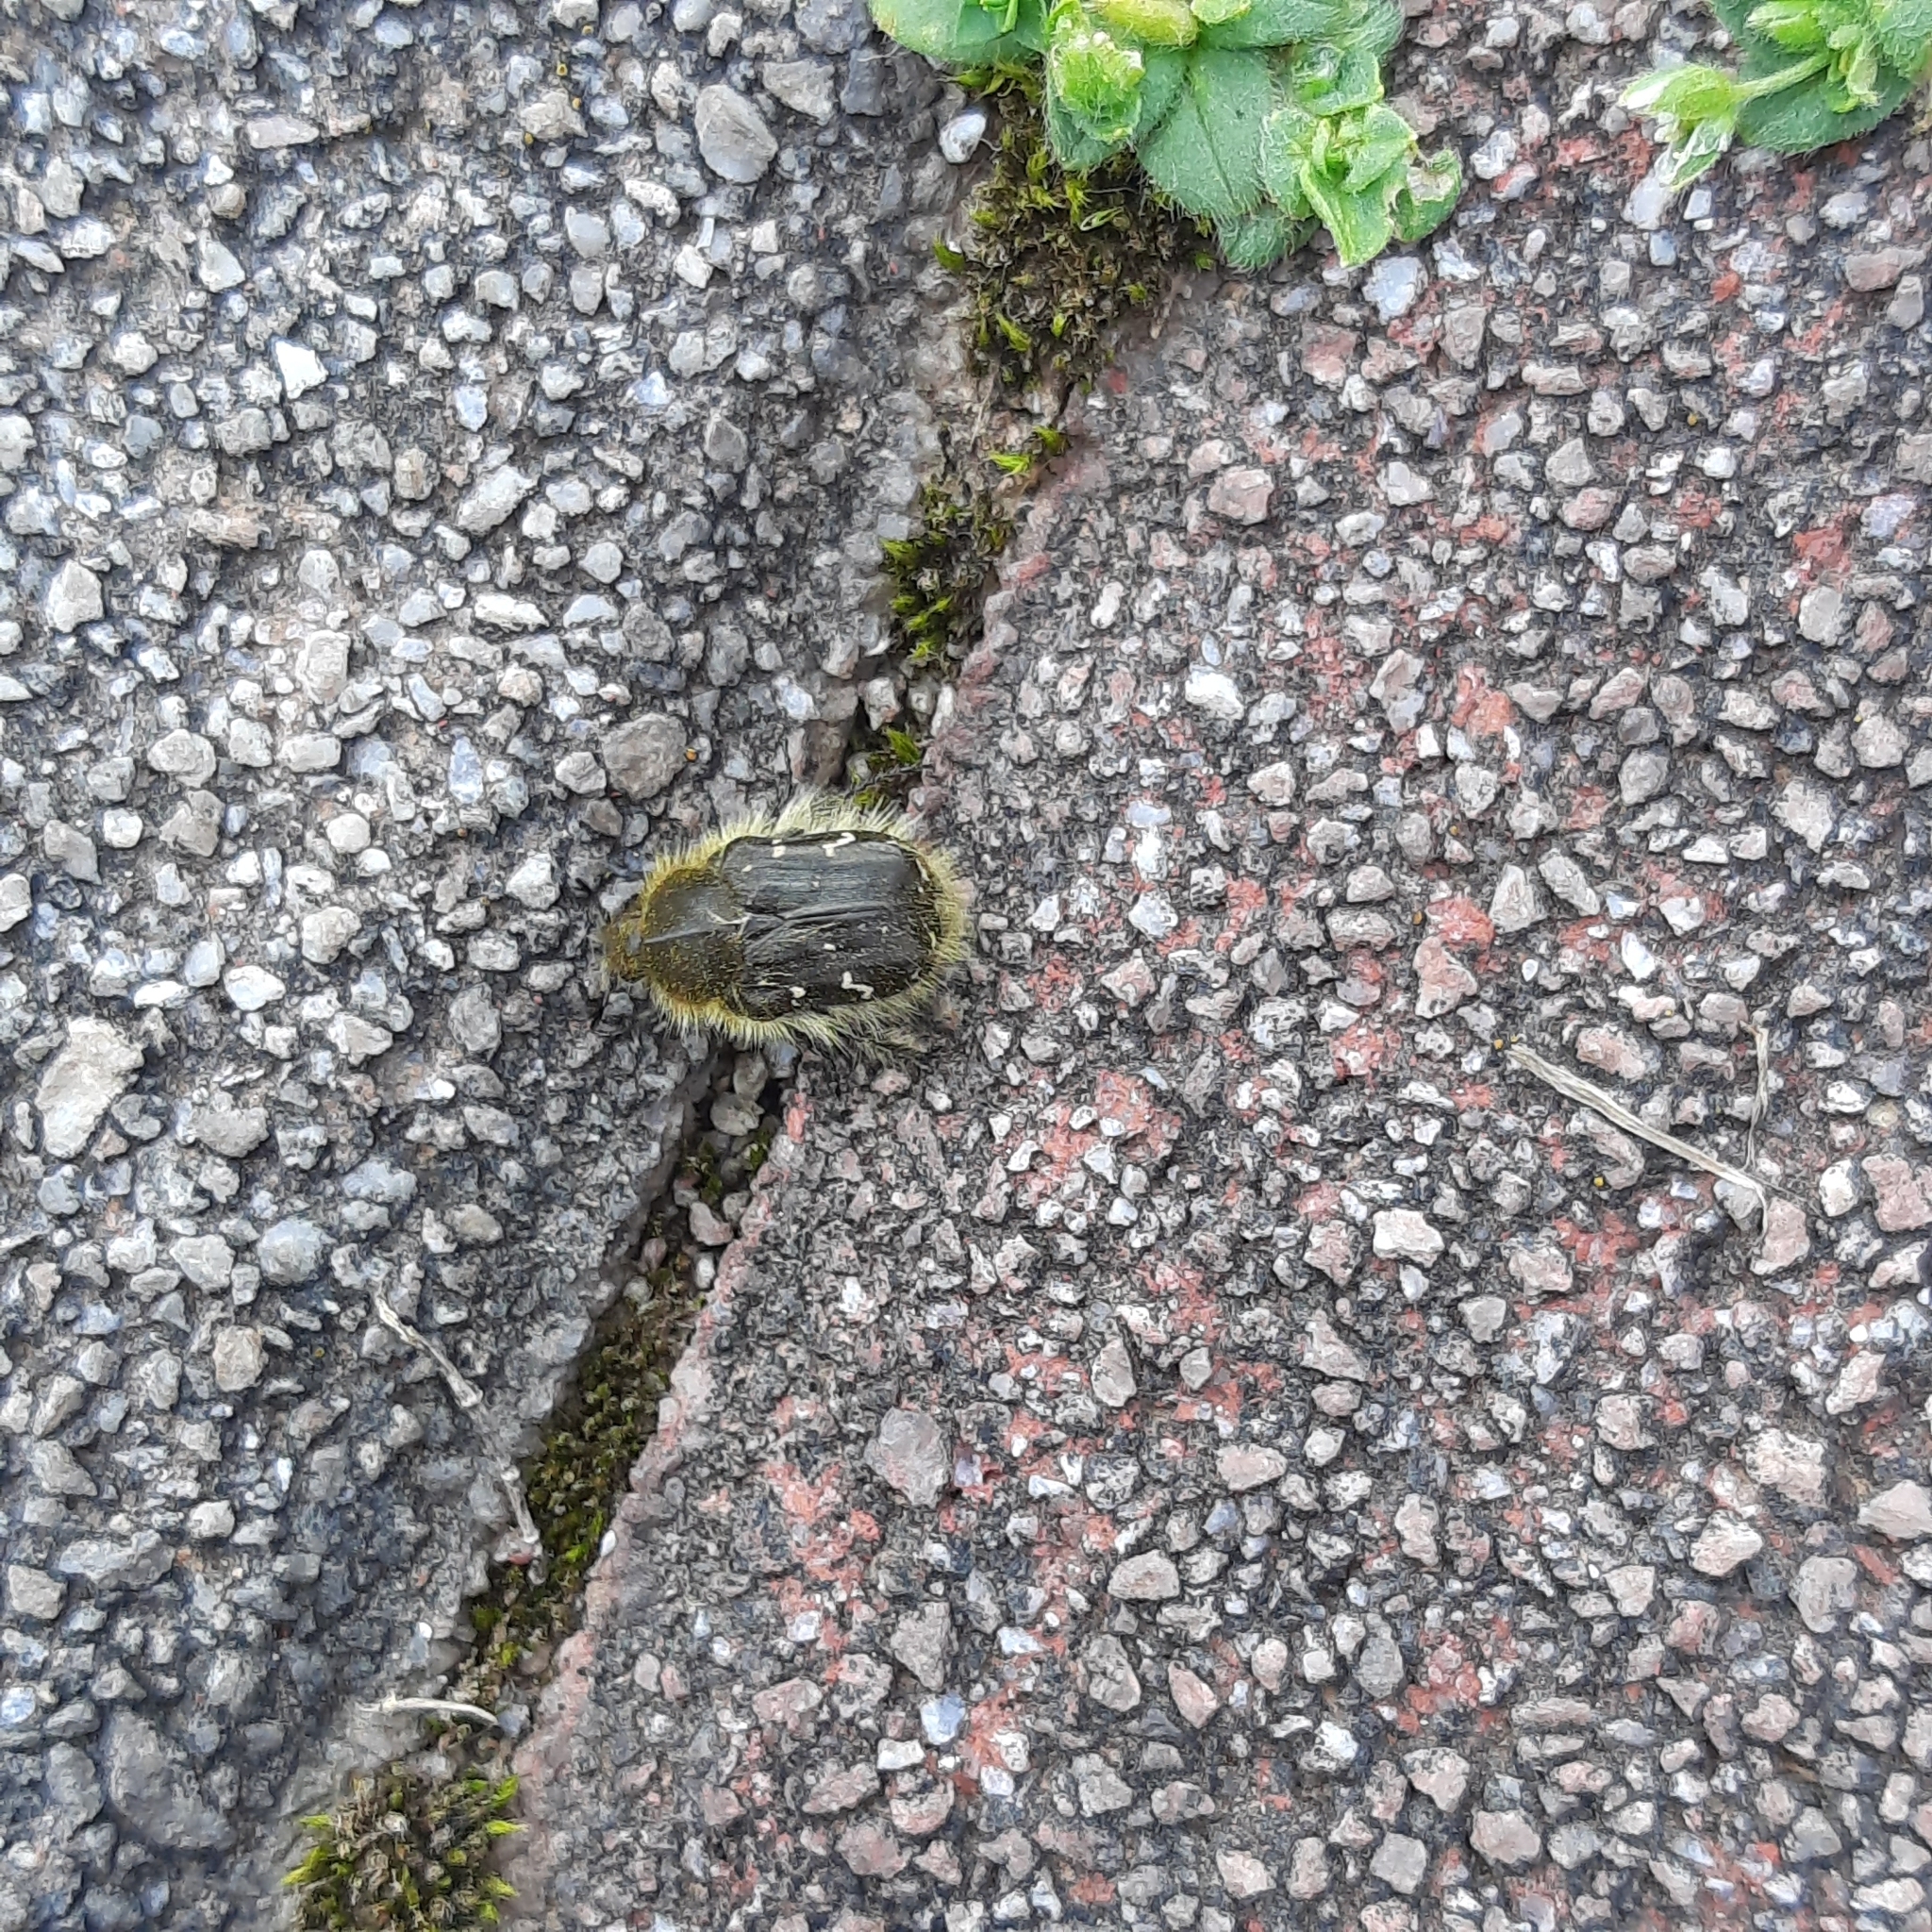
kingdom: Animalia
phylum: Arthropoda
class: Insecta
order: Coleoptera
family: Scarabaeidae
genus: Tropinota
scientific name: Tropinota hirta
